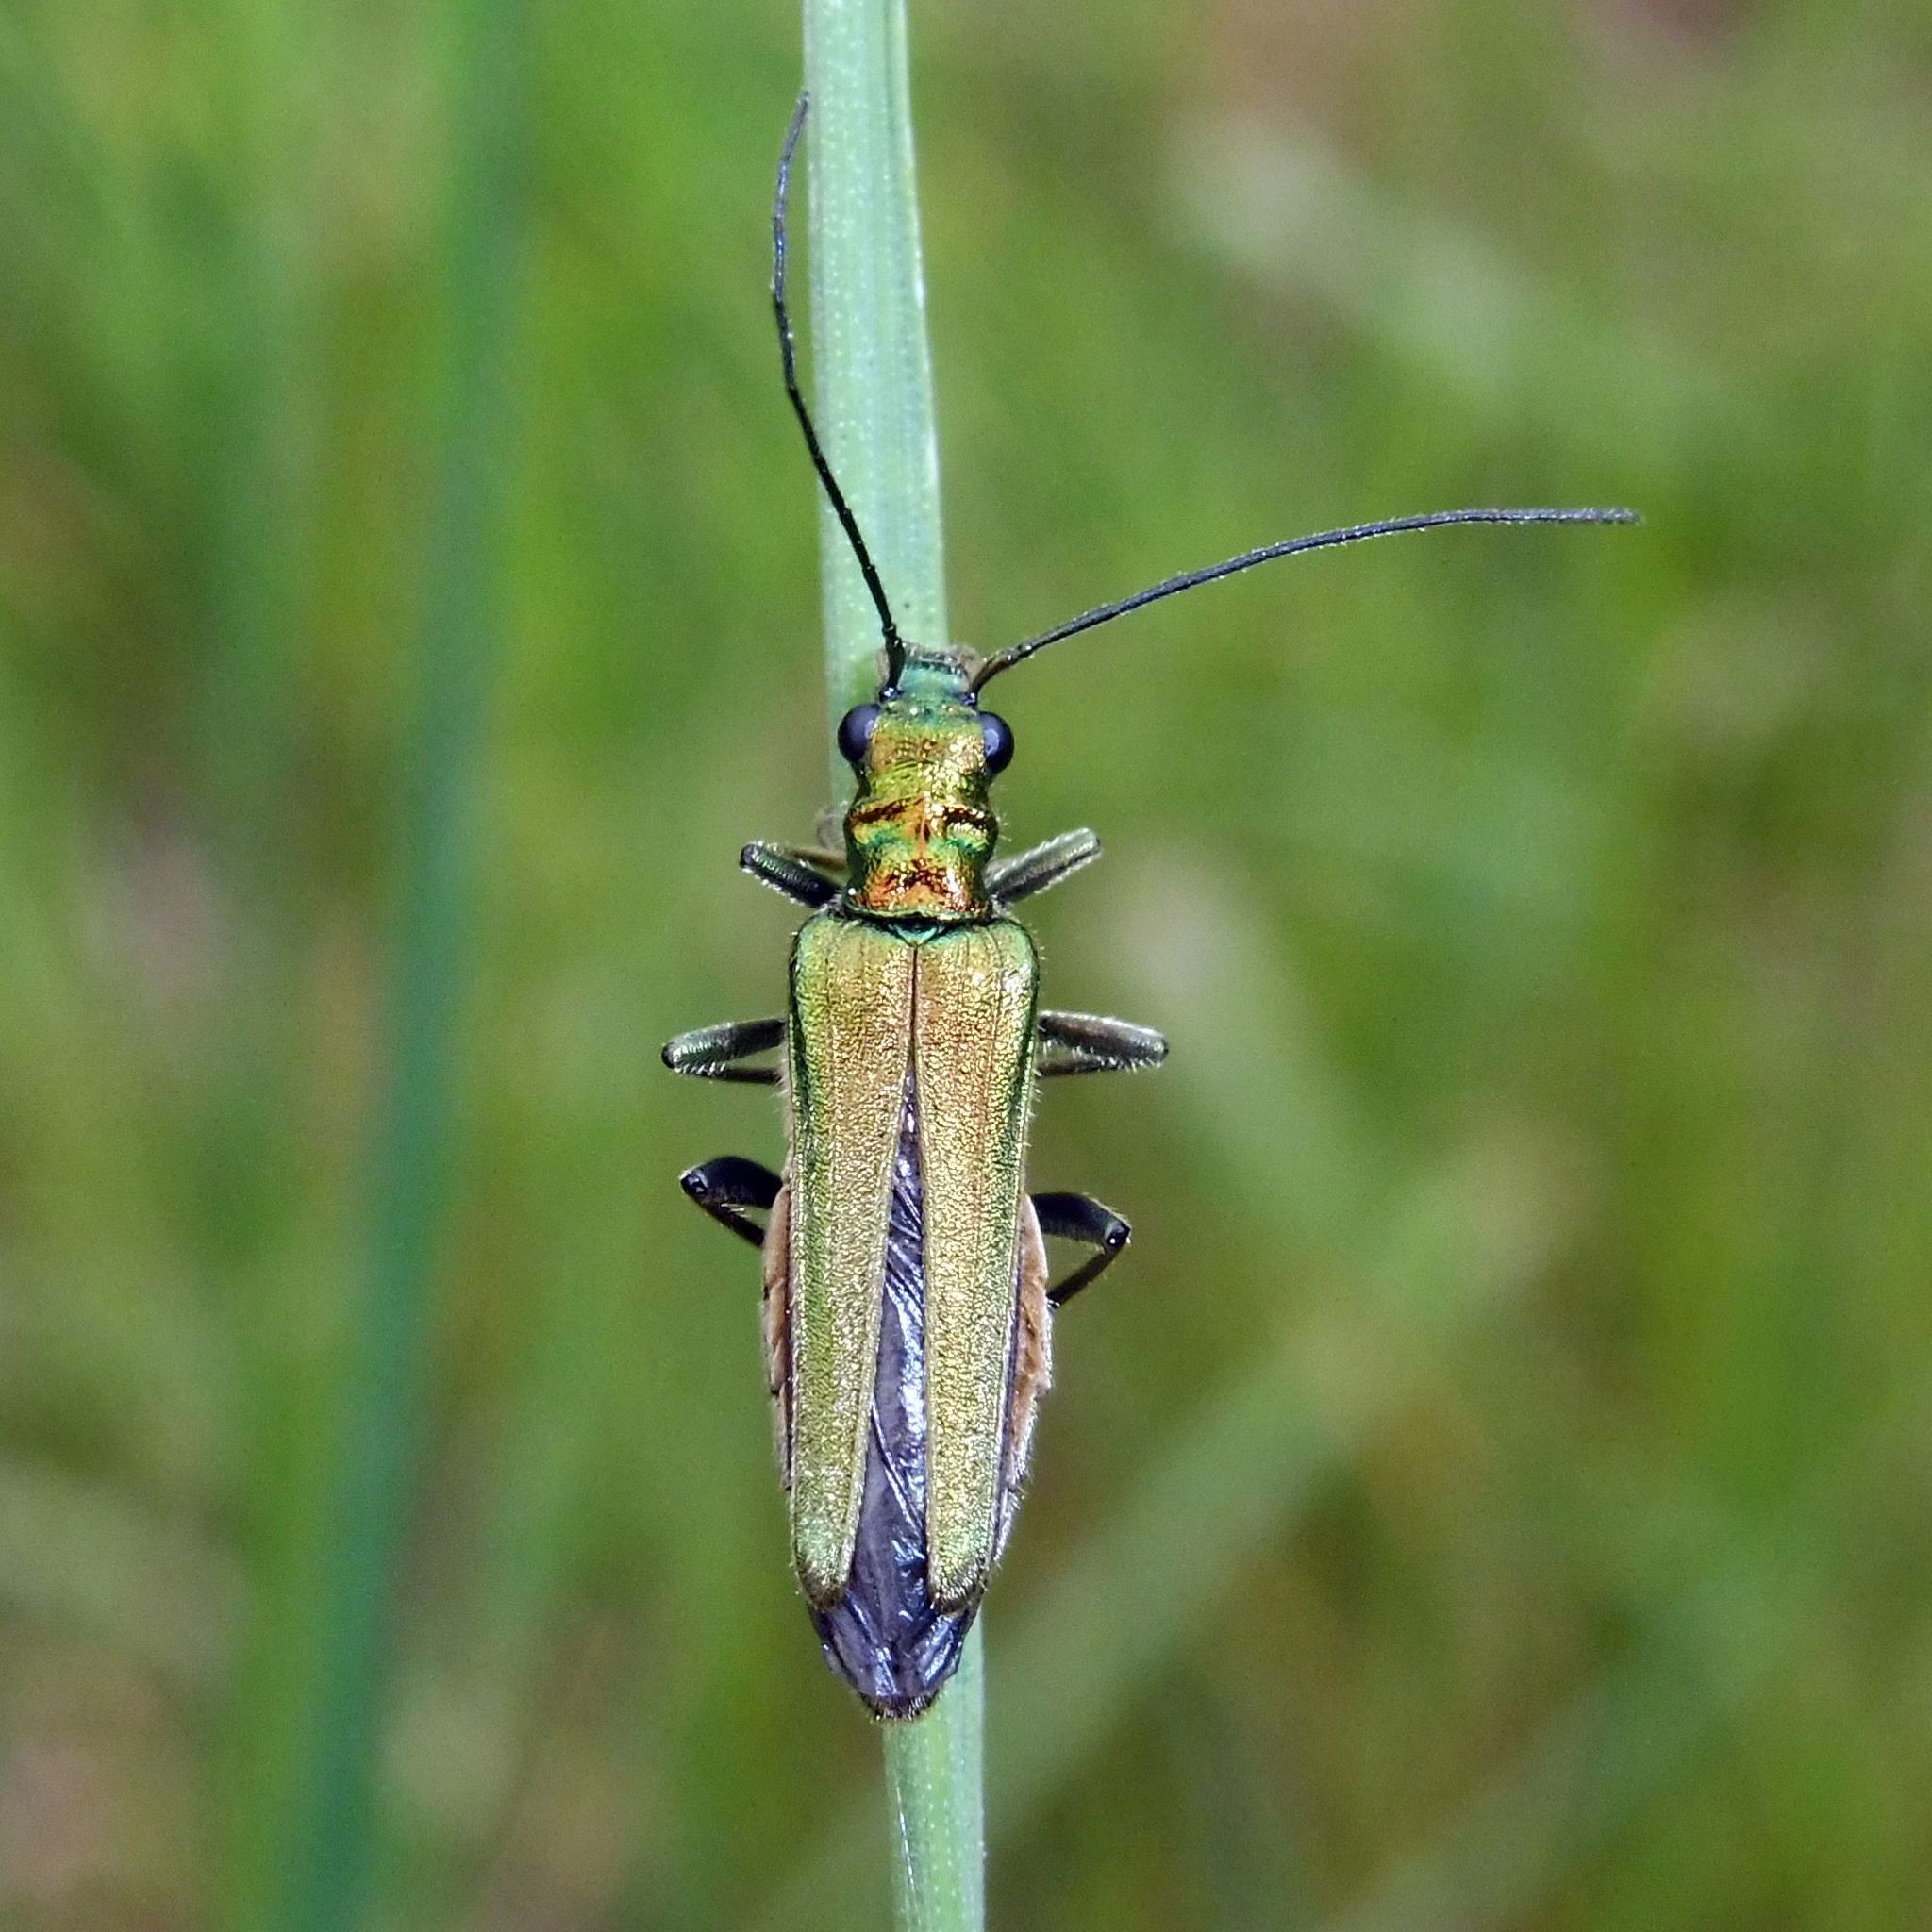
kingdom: Animalia
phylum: Arthropoda
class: Insecta
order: Coleoptera
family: Oedemeridae
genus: Oedemera
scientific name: Oedemera nobilis
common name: Swollen-thighed beetle
